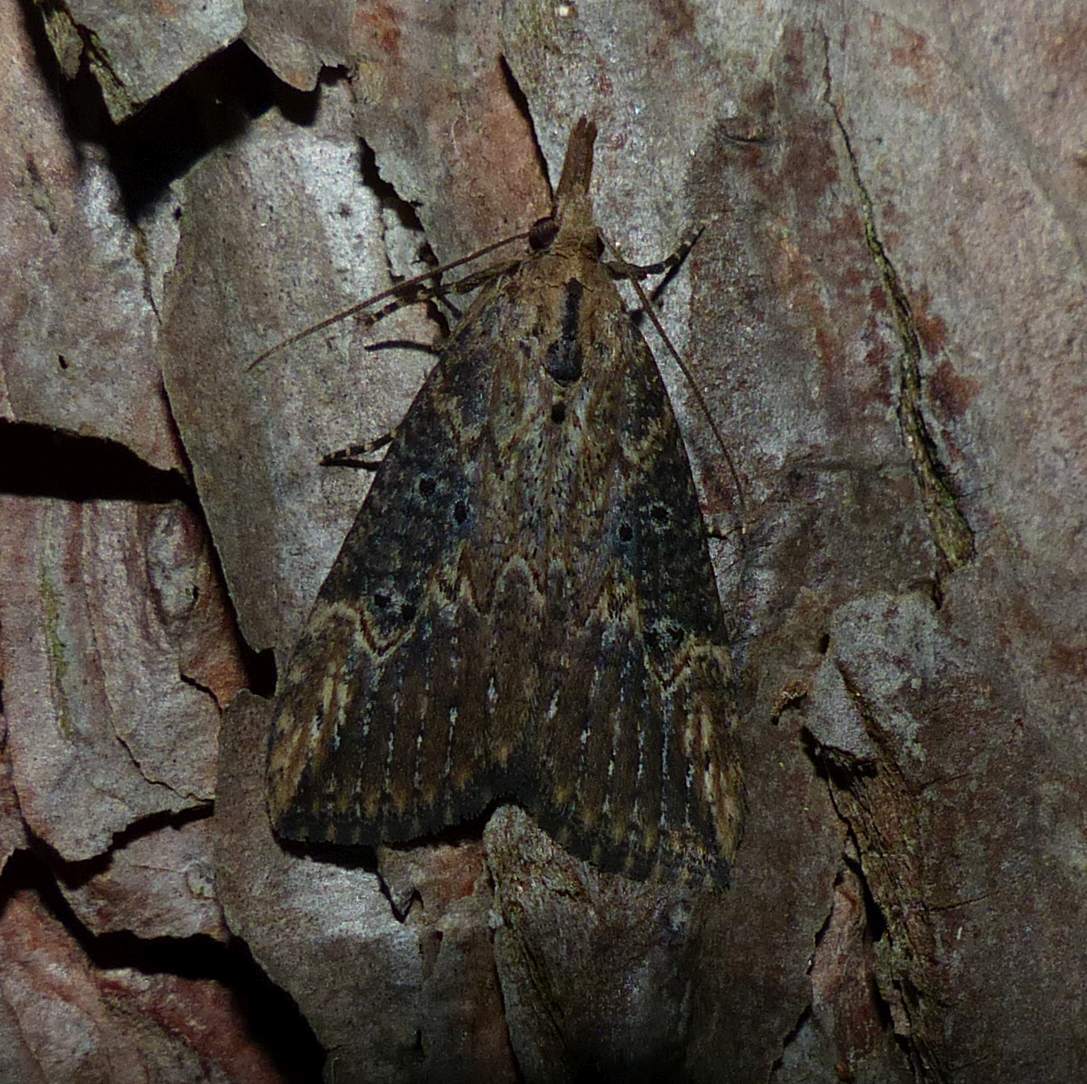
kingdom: Animalia
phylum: Arthropoda
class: Insecta
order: Lepidoptera
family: Erebidae
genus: Hypena
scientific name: Hypena humuli
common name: Hop vine snout
